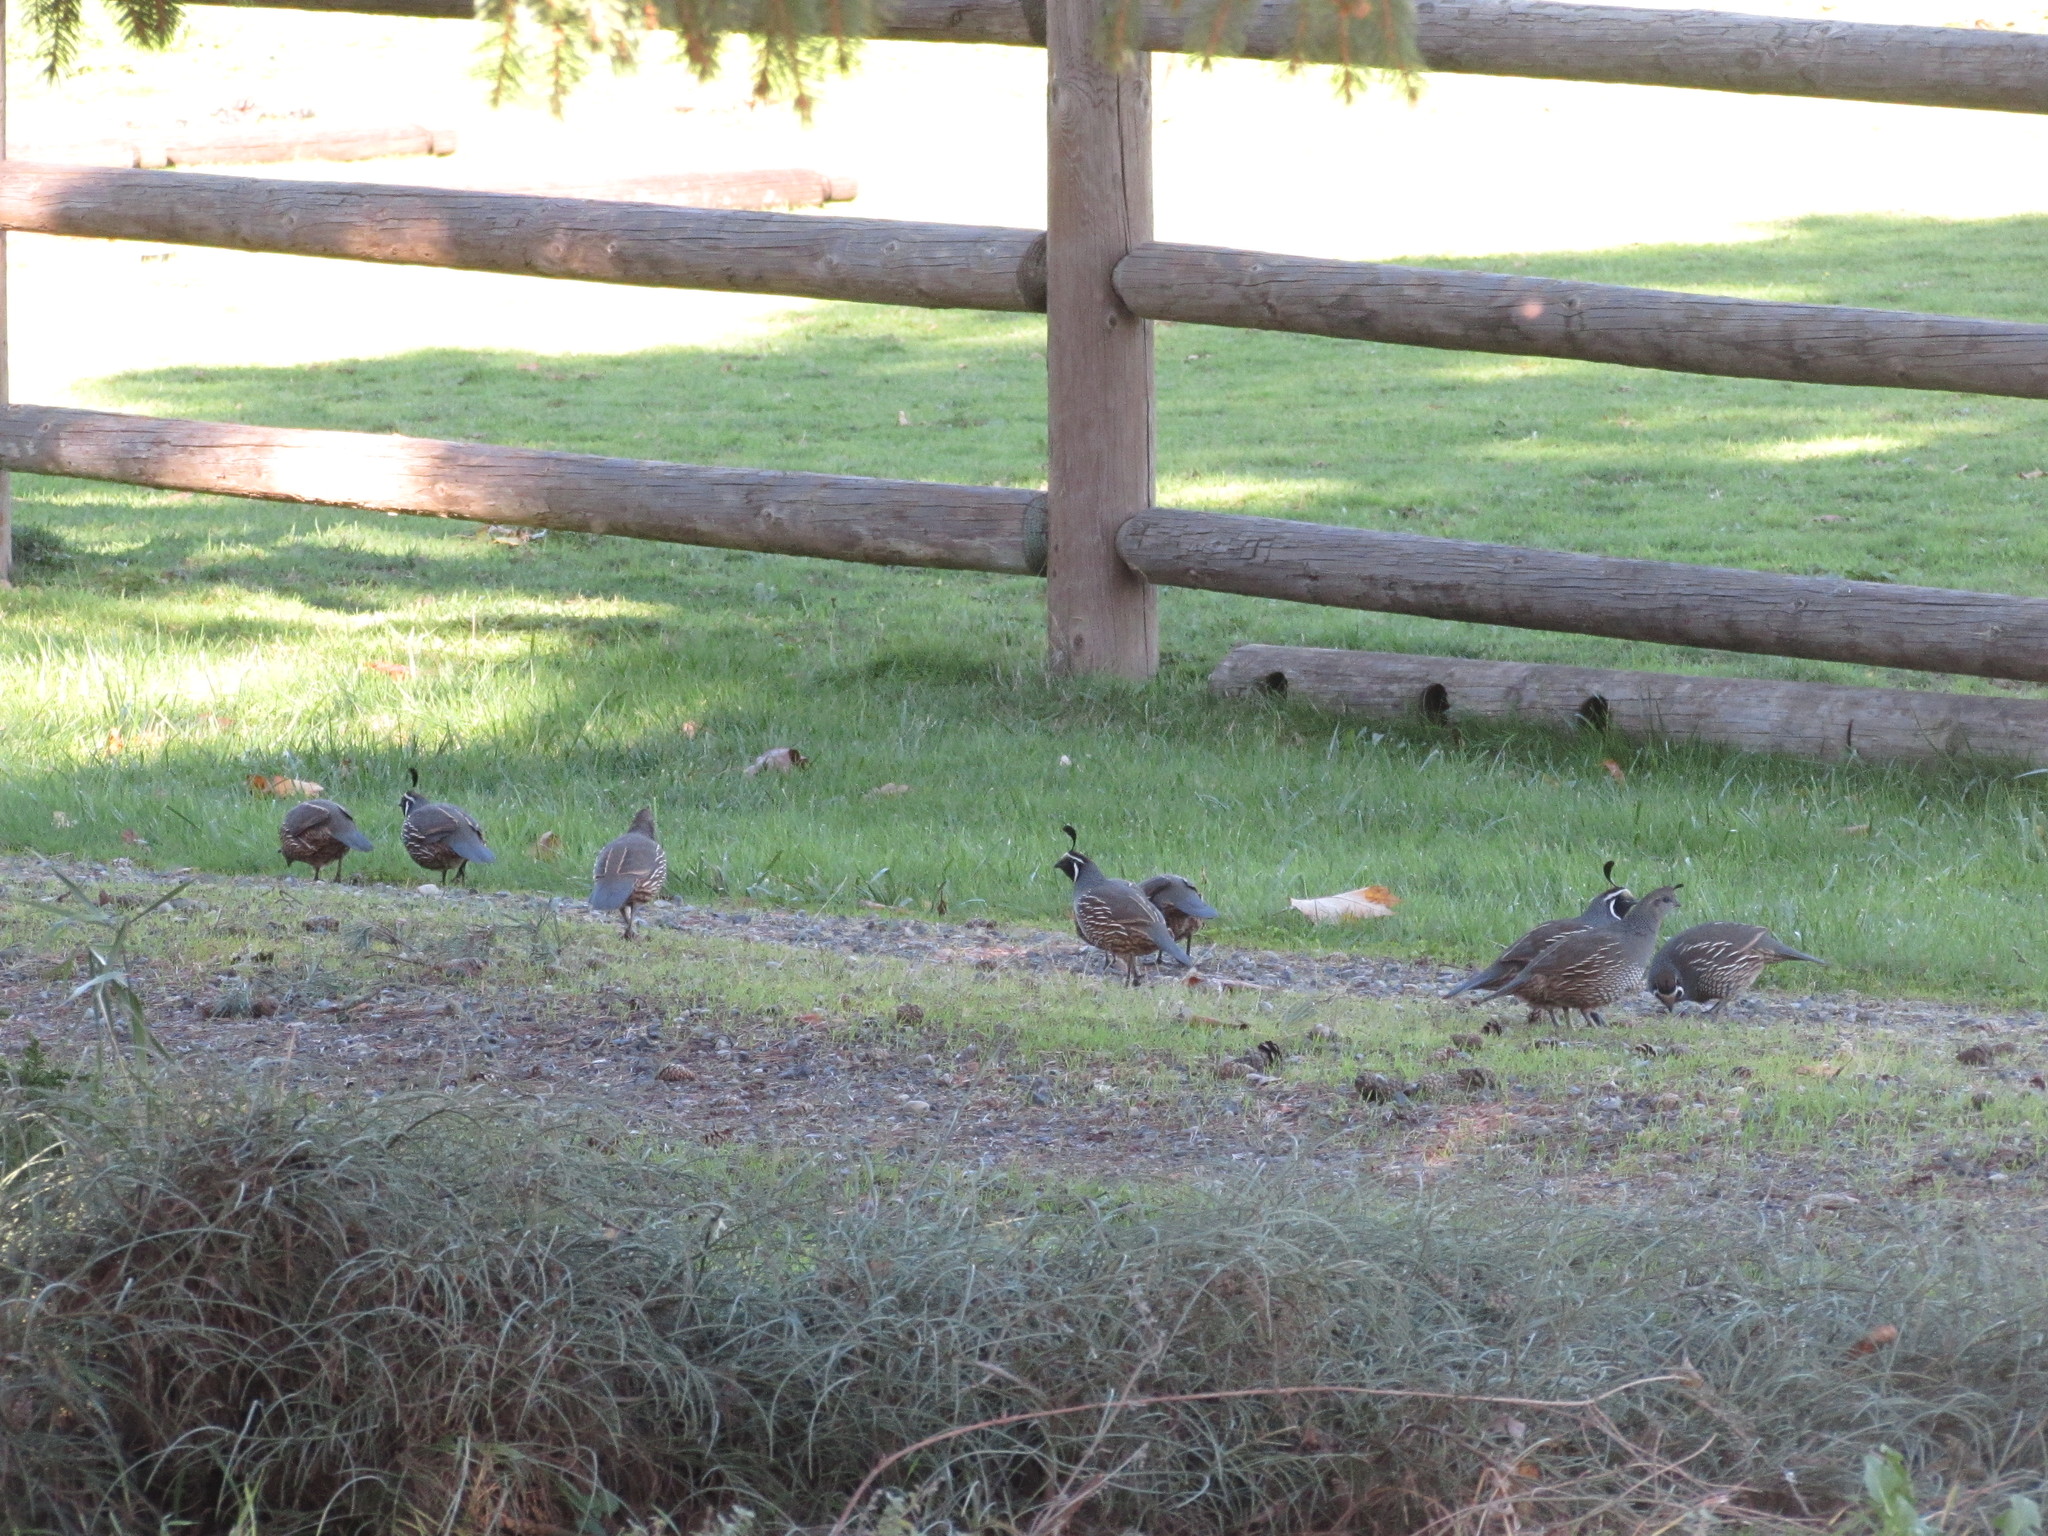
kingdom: Animalia
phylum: Chordata
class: Aves
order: Galliformes
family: Odontophoridae
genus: Callipepla
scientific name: Callipepla californica
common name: California quail
